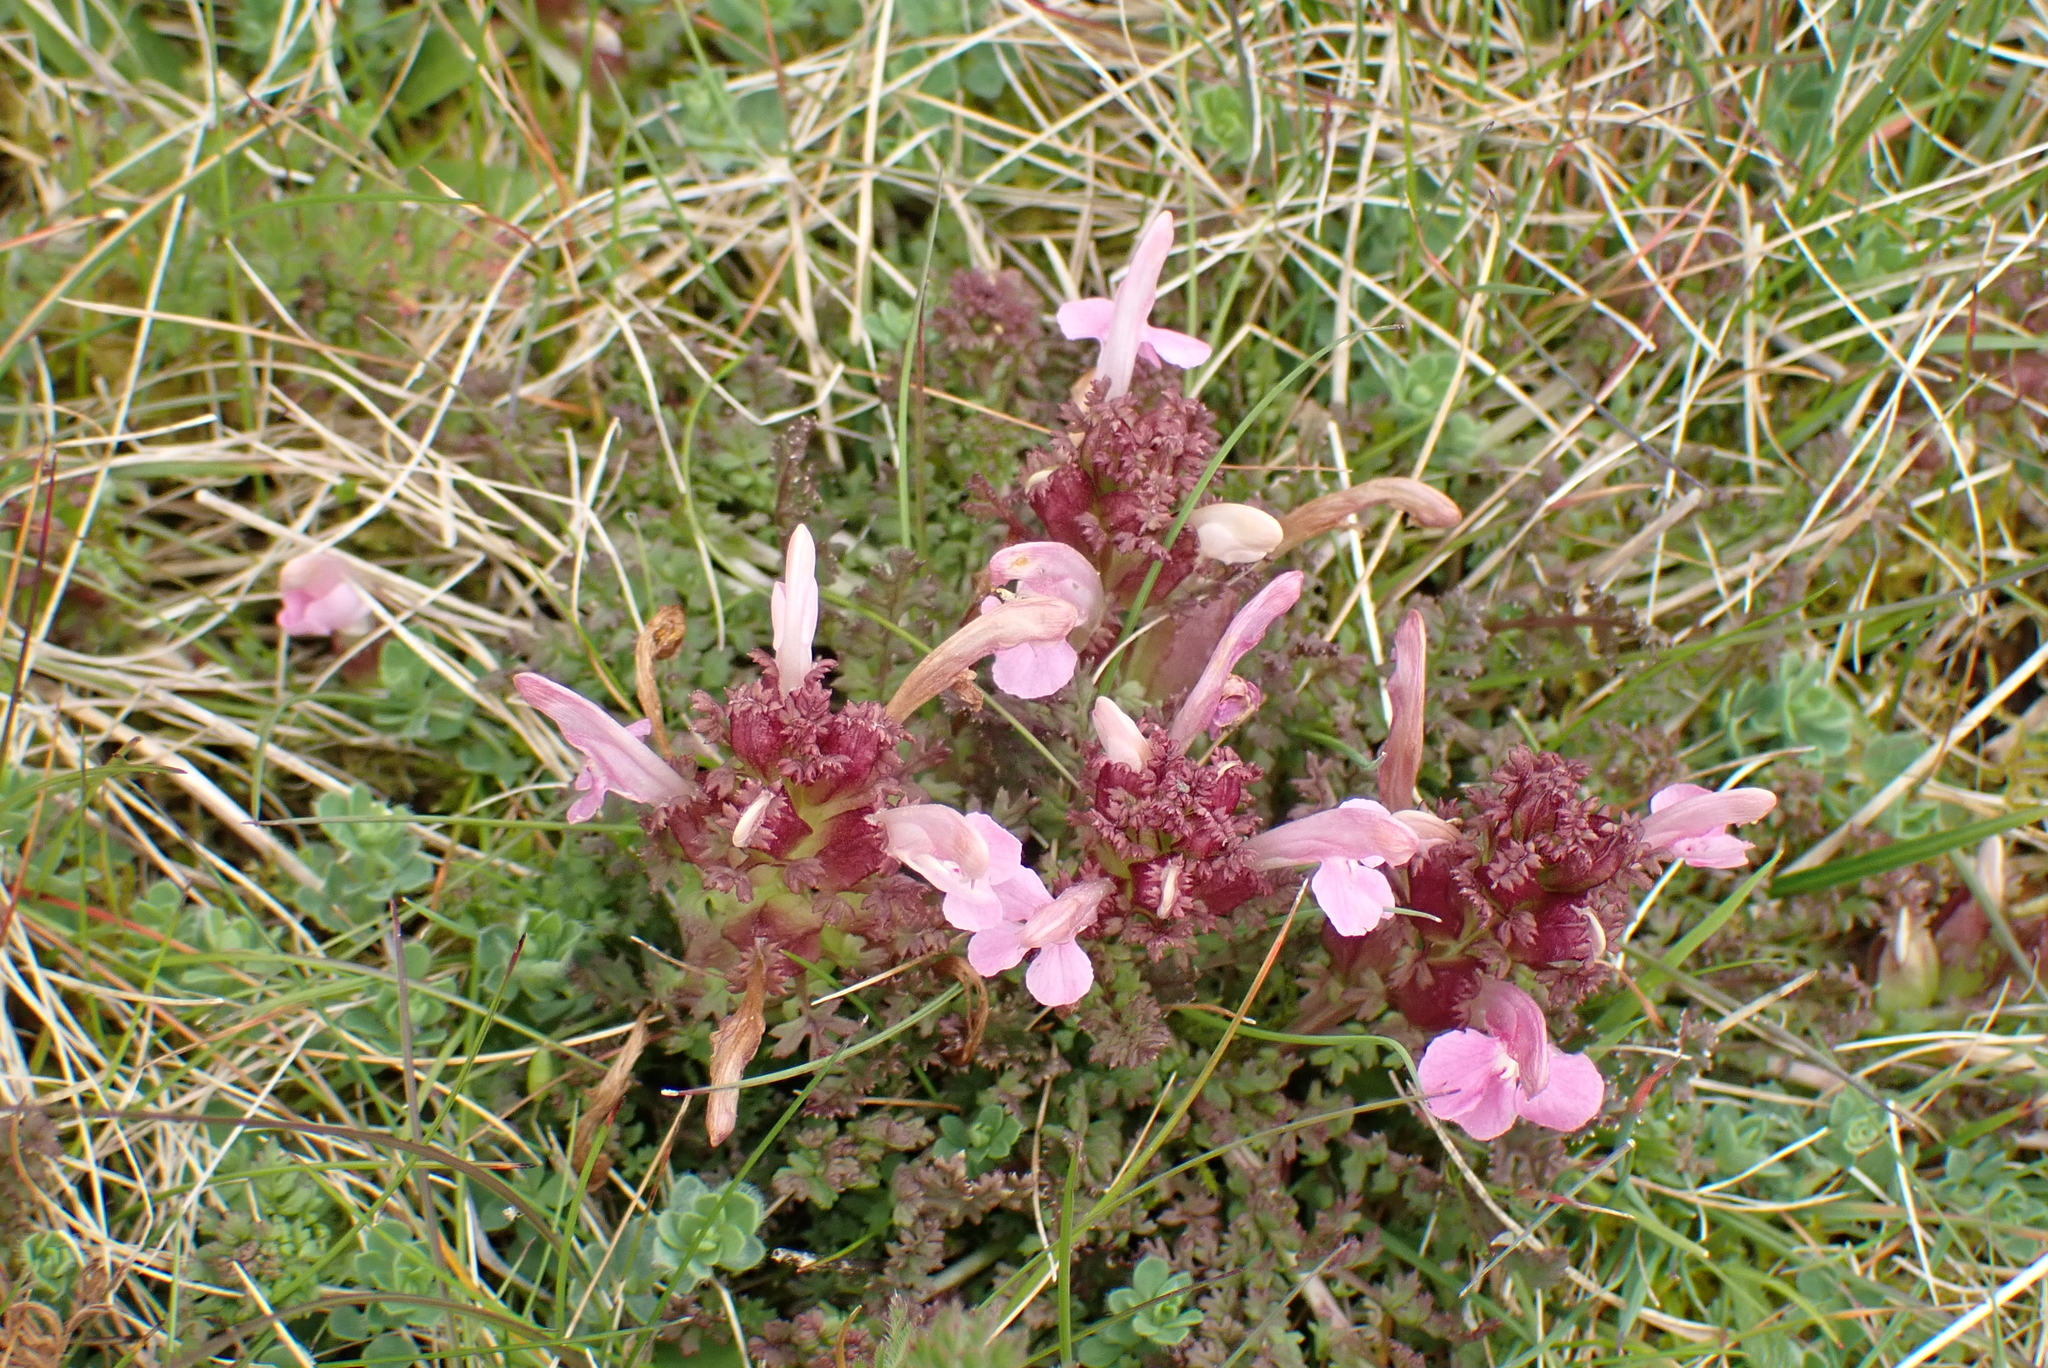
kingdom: Plantae
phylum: Tracheophyta
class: Magnoliopsida
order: Lamiales
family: Orobanchaceae
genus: Pedicularis
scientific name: Pedicularis sylvatica
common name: Lousewort
